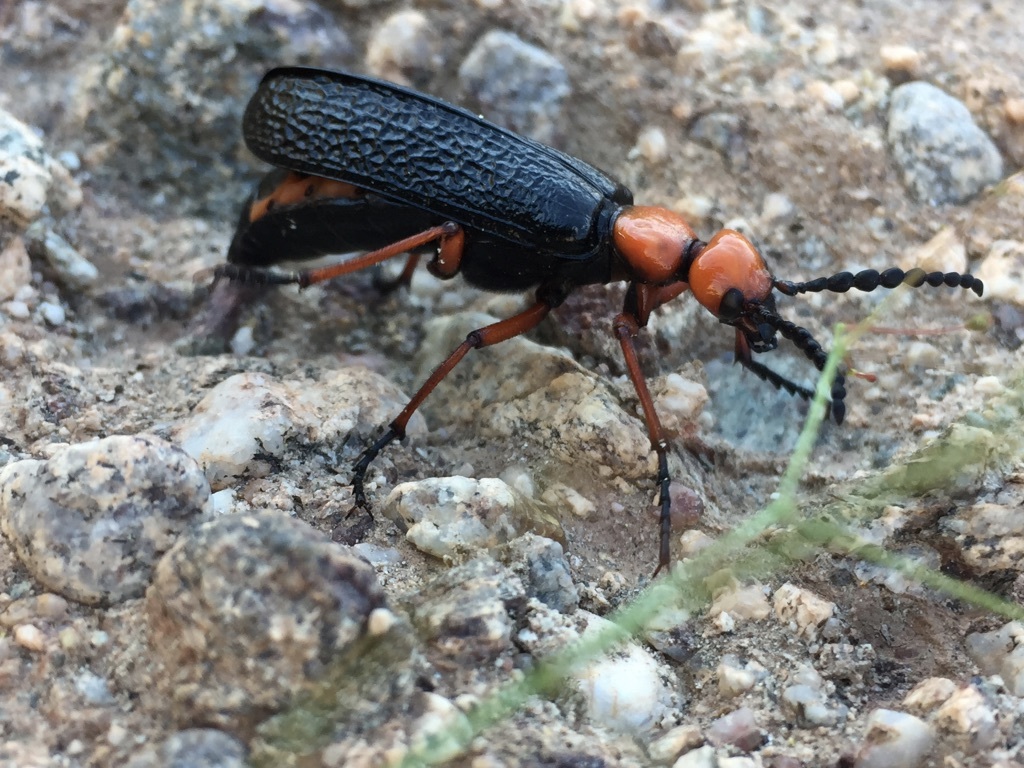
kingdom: Animalia
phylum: Arthropoda
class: Insecta
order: Coleoptera
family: Meloidae
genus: Lytta
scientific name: Lytta magister
